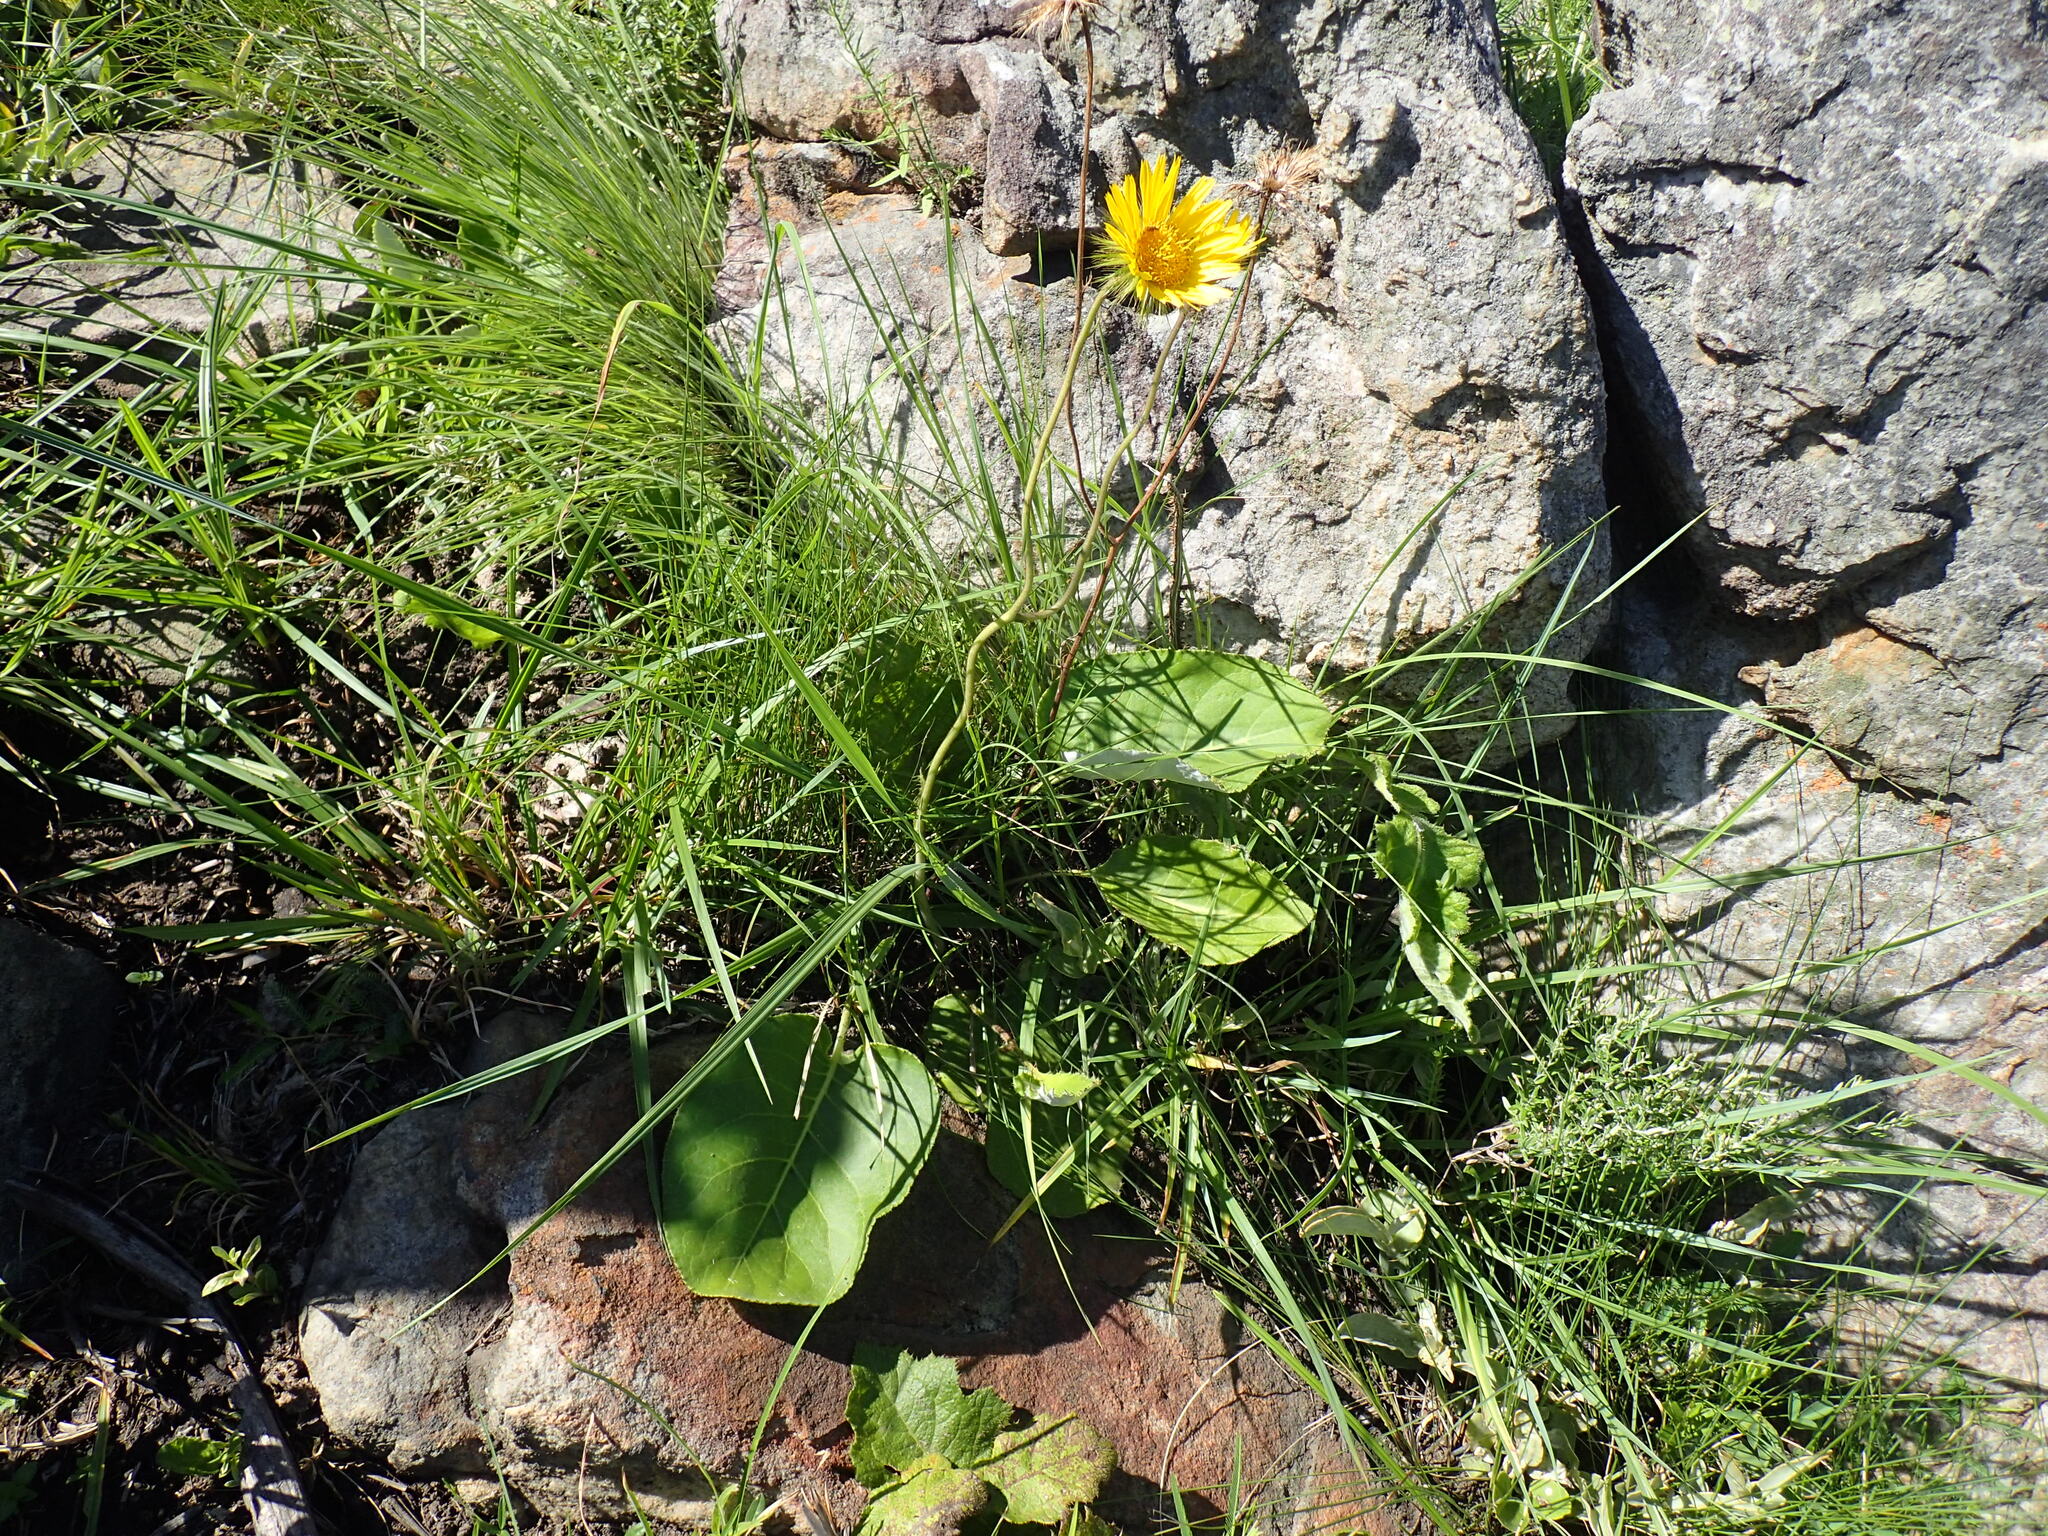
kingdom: Plantae
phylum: Tracheophyta
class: Magnoliopsida
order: Asterales
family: Asteraceae
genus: Berkheya
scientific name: Berkheya speciosa
